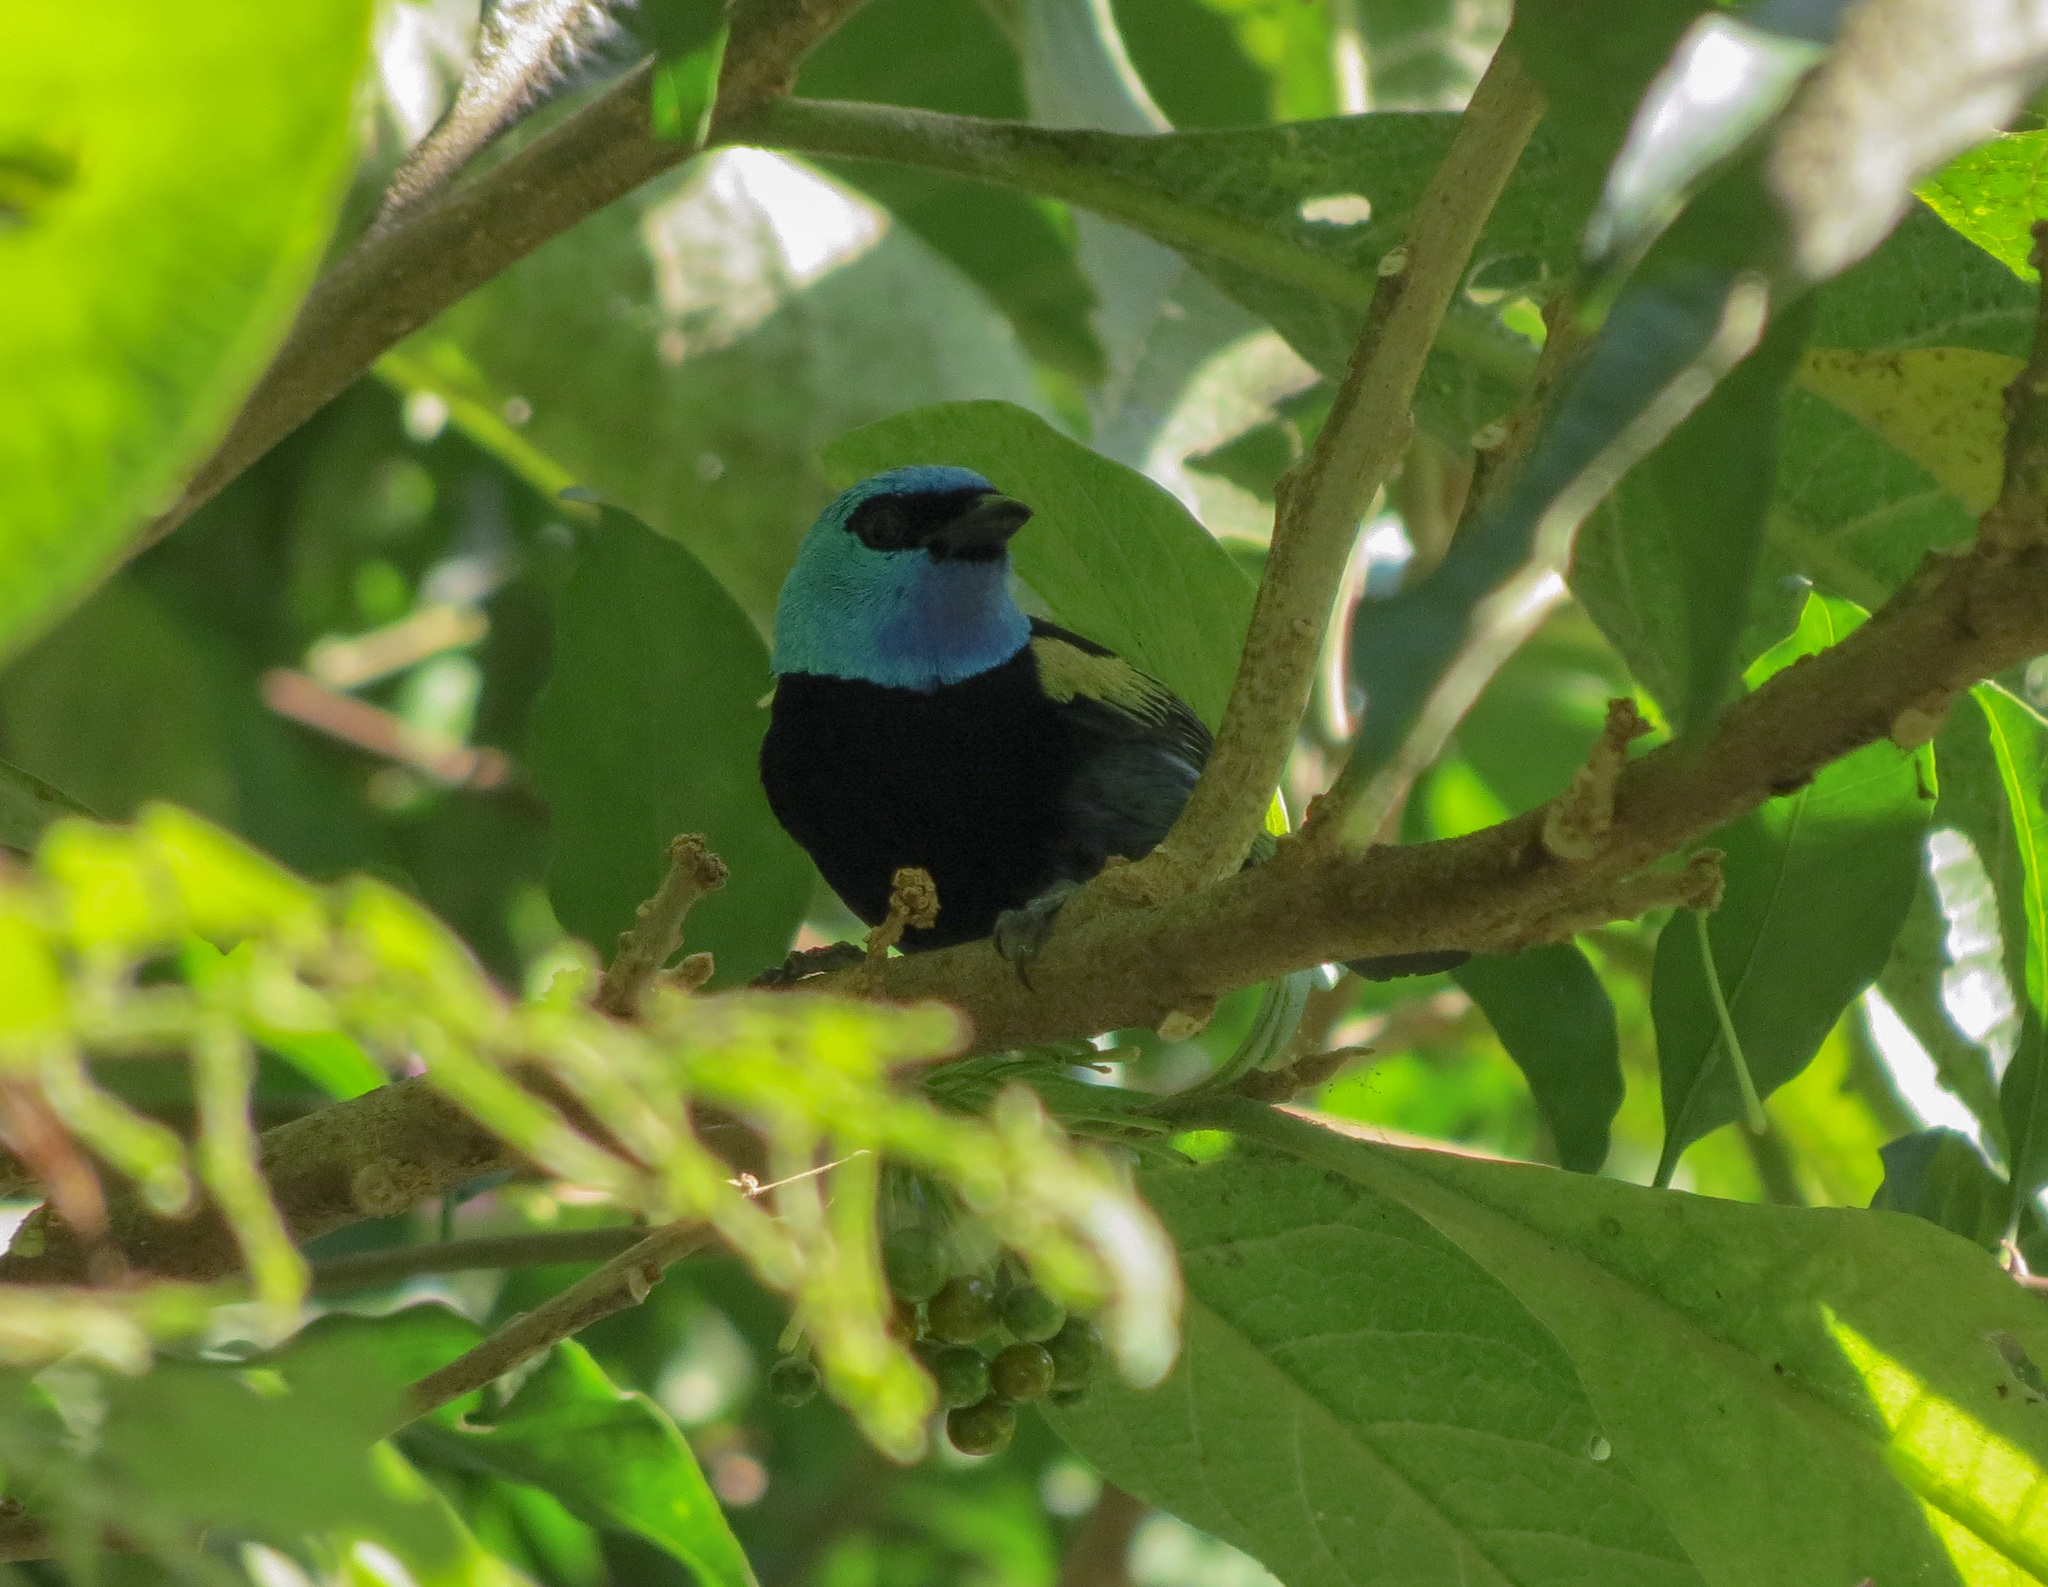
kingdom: Animalia
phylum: Chordata
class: Aves
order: Passeriformes
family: Thraupidae
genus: Stilpnia
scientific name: Stilpnia cyanicollis
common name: Blue-necked tanager
